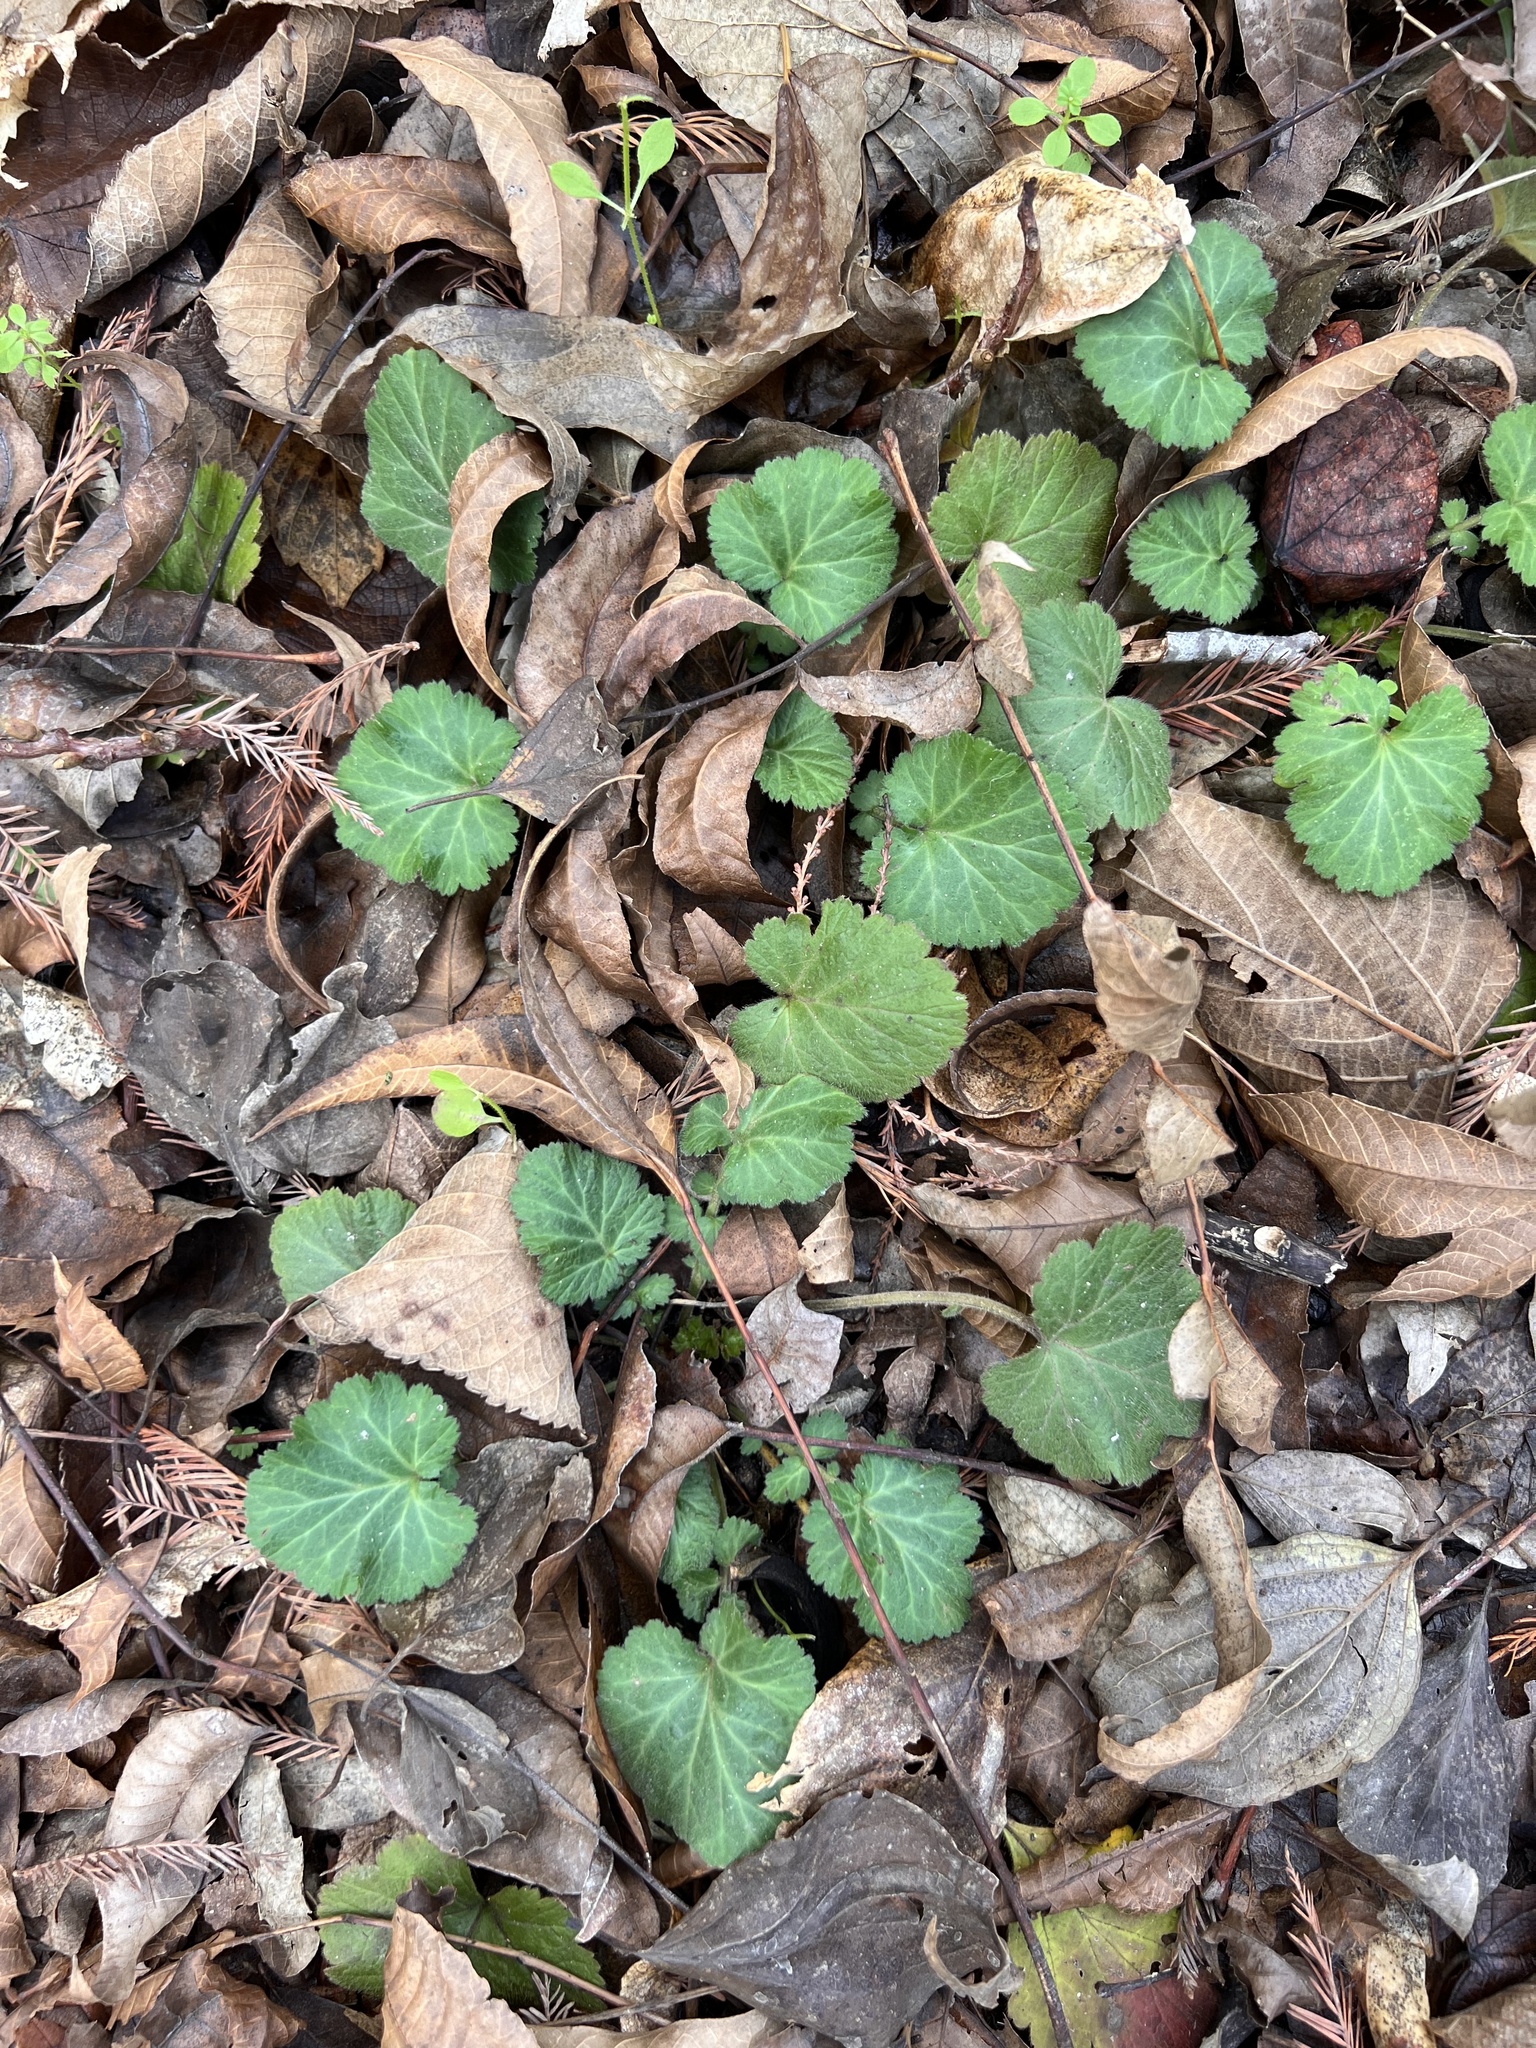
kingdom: Plantae
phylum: Tracheophyta
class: Magnoliopsida
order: Rosales
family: Rosaceae
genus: Geum
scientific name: Geum canadense
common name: White avens
